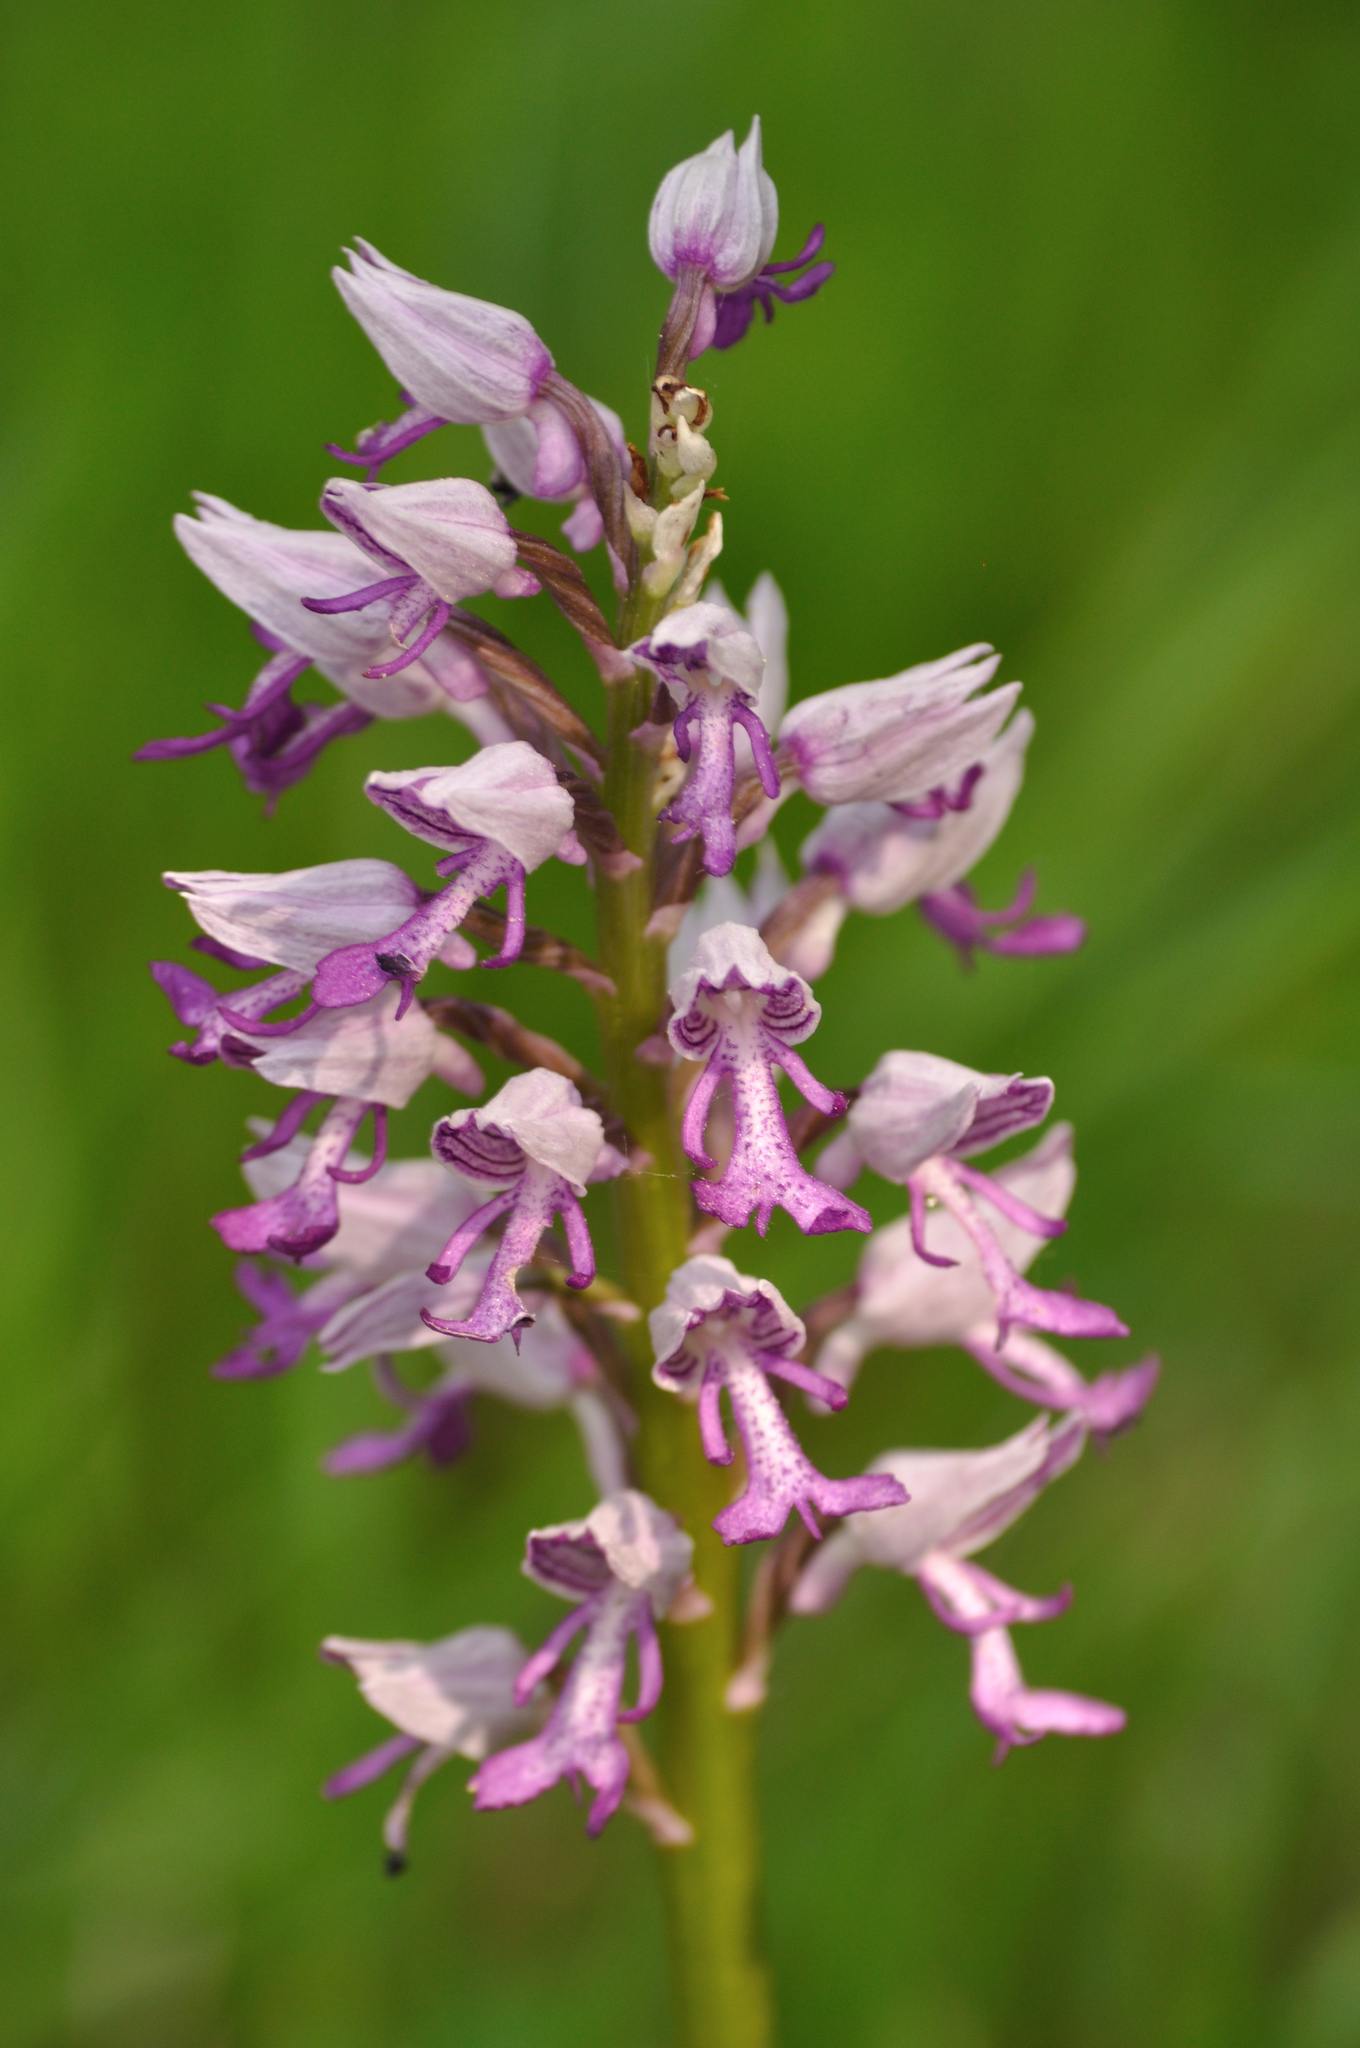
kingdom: Plantae
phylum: Tracheophyta
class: Liliopsida
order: Asparagales
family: Orchidaceae
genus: Orchis
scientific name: Orchis militaris
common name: Military orchid
